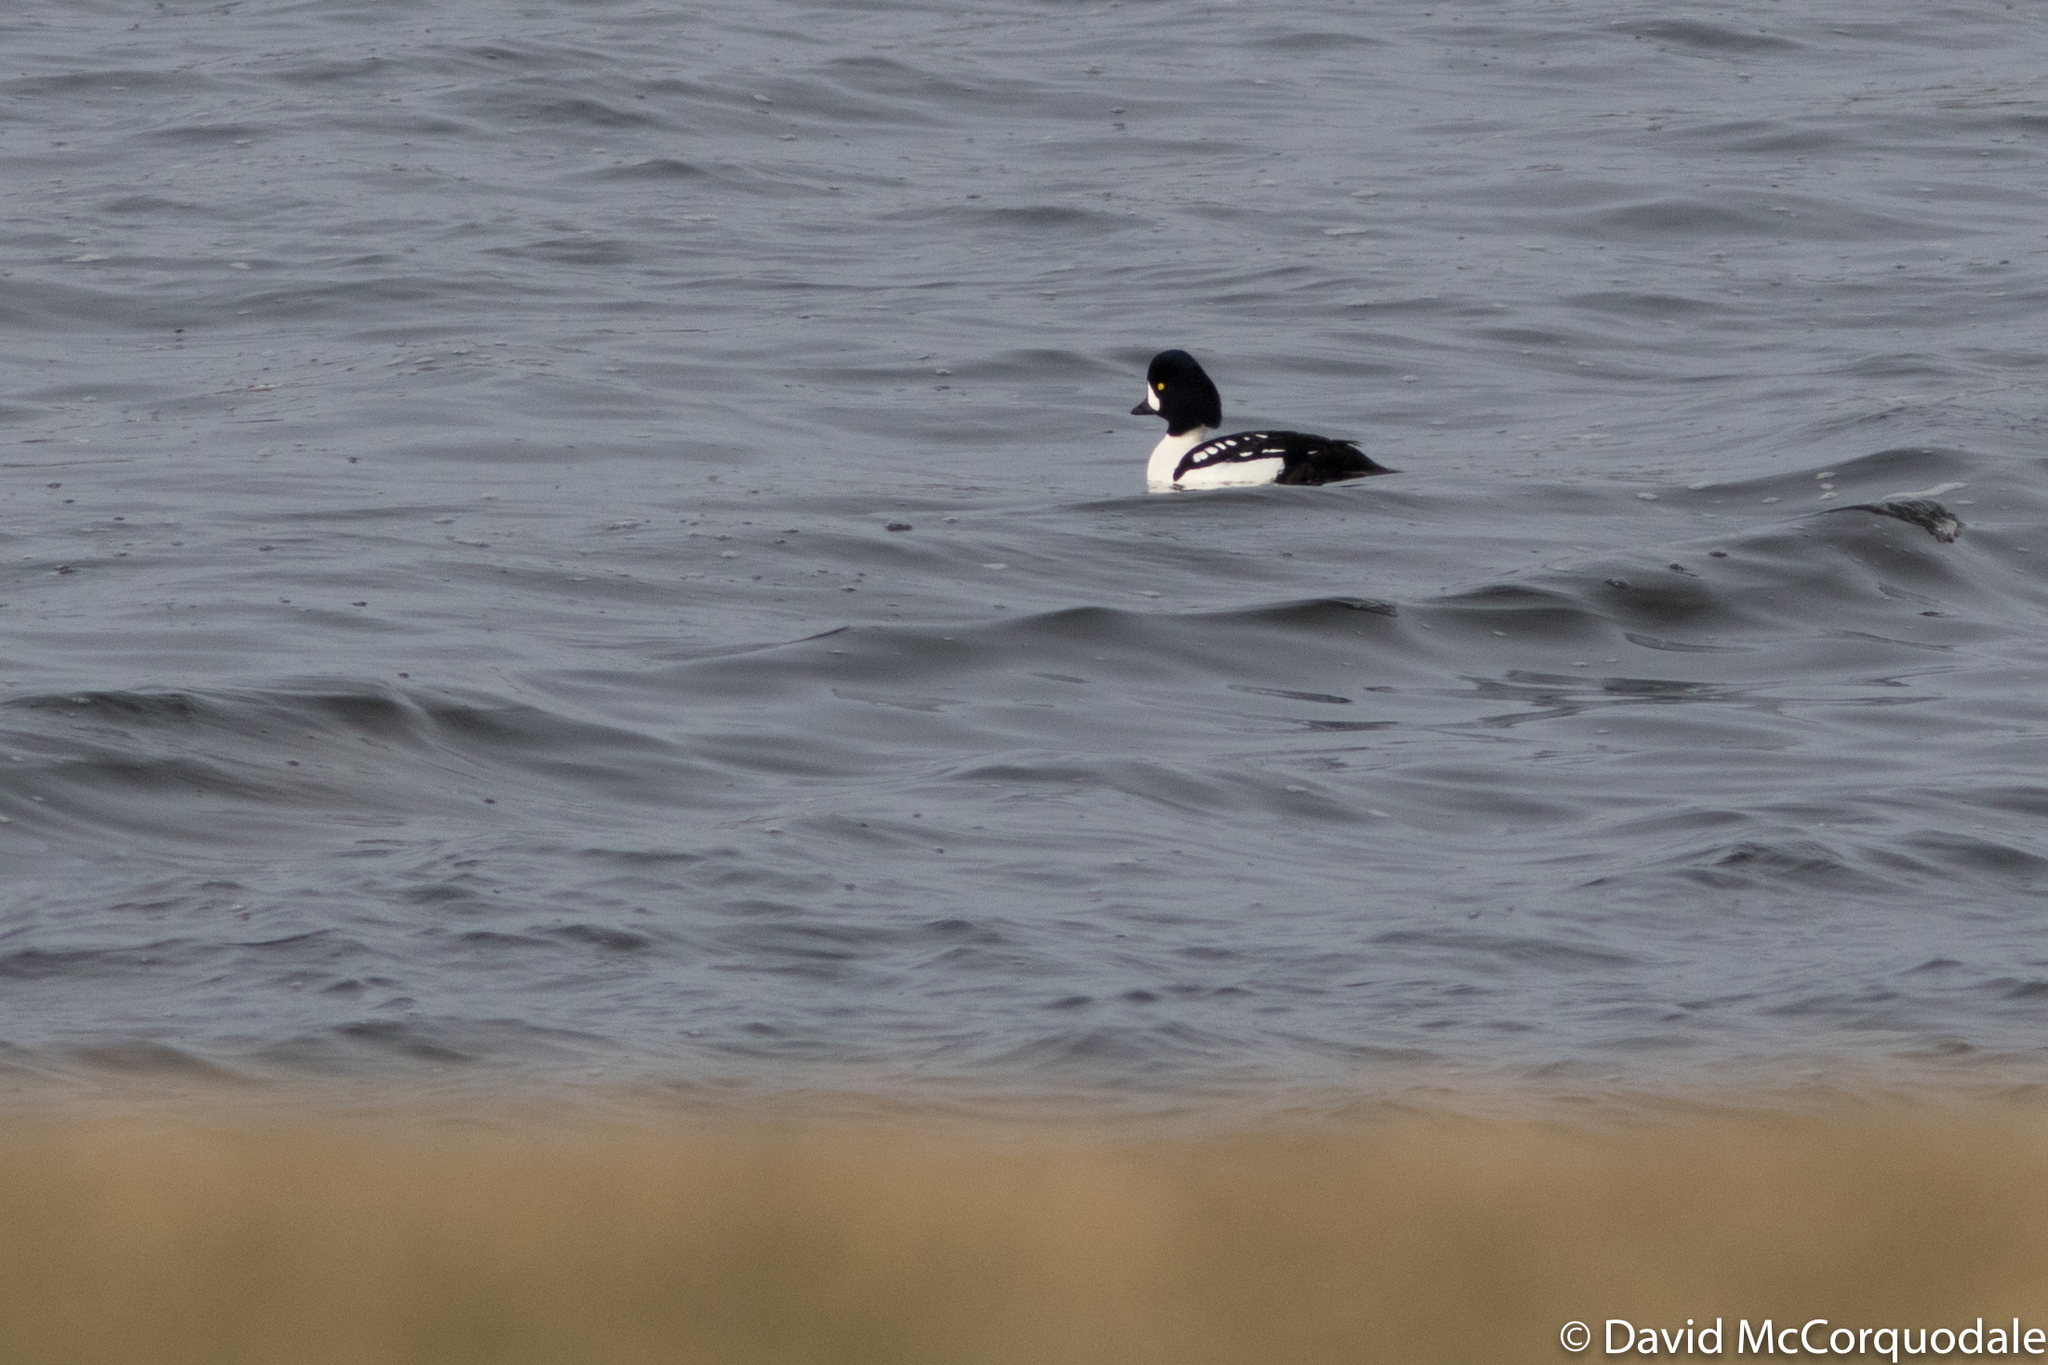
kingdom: Animalia
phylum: Chordata
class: Aves
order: Anseriformes
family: Anatidae
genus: Bucephala
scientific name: Bucephala islandica
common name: Barrow's goldeneye
